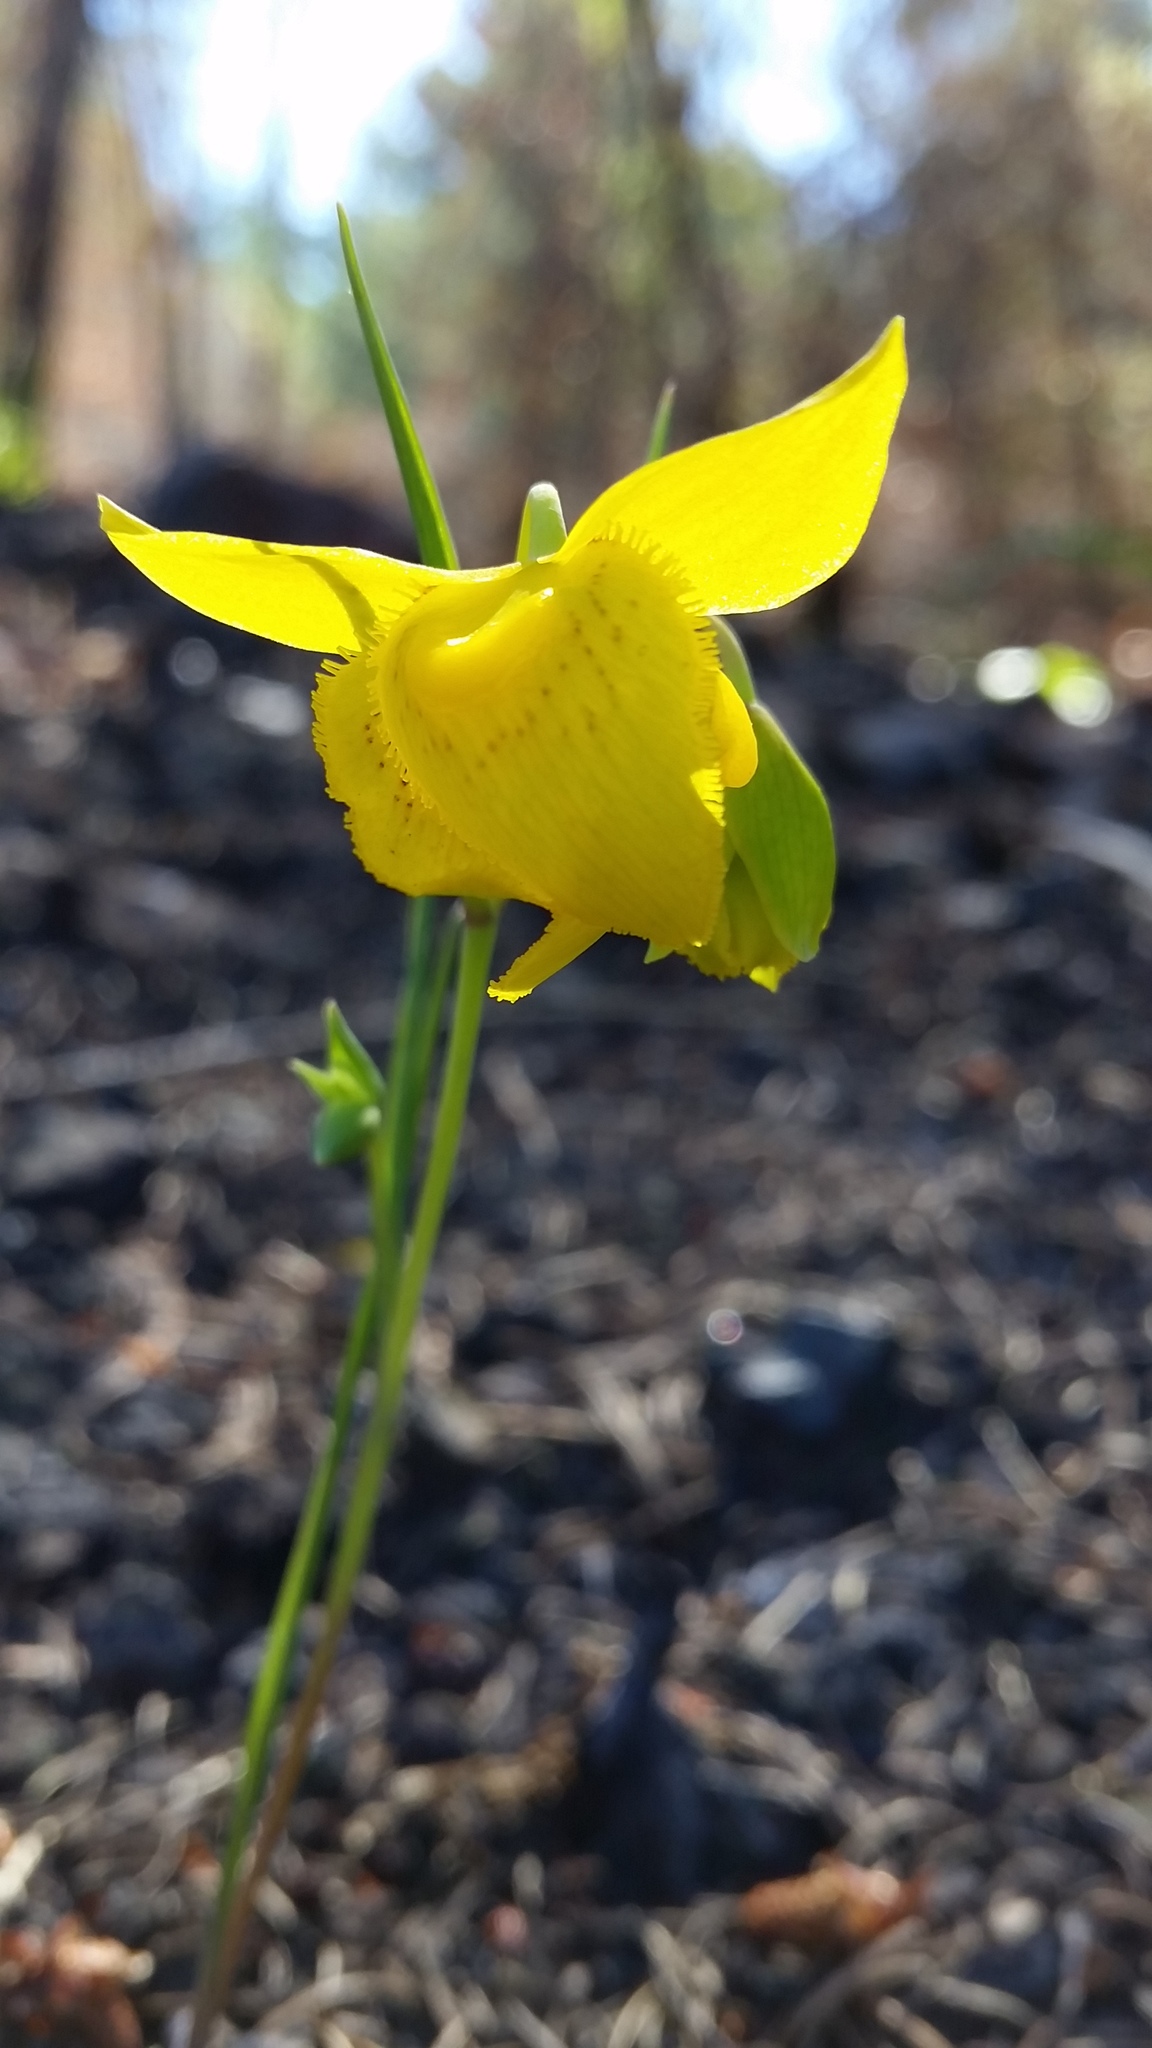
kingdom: Plantae
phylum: Tracheophyta
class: Liliopsida
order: Liliales
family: Liliaceae
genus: Calochortus
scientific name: Calochortus amabilis
